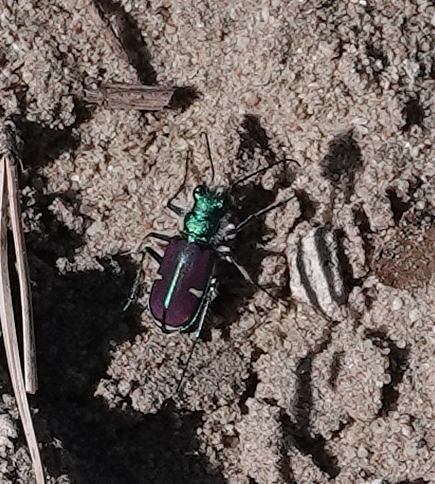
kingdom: Animalia
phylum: Arthropoda
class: Insecta
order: Coleoptera
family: Carabidae
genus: Cicindela
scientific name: Cicindela splendida
